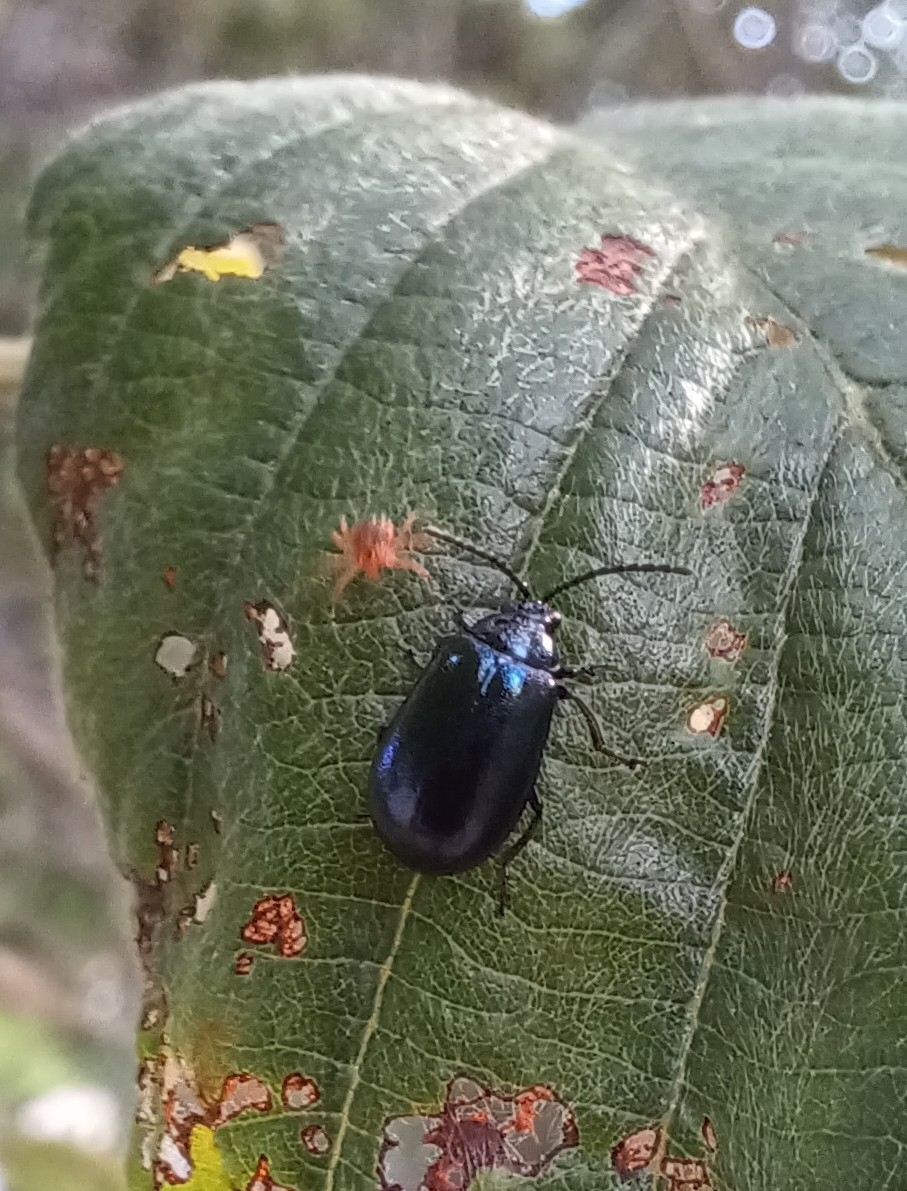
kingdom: Animalia
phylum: Arthropoda
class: Insecta
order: Coleoptera
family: Chrysomelidae
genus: Agelastica
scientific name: Agelastica alni
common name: Alder leaf beetle
